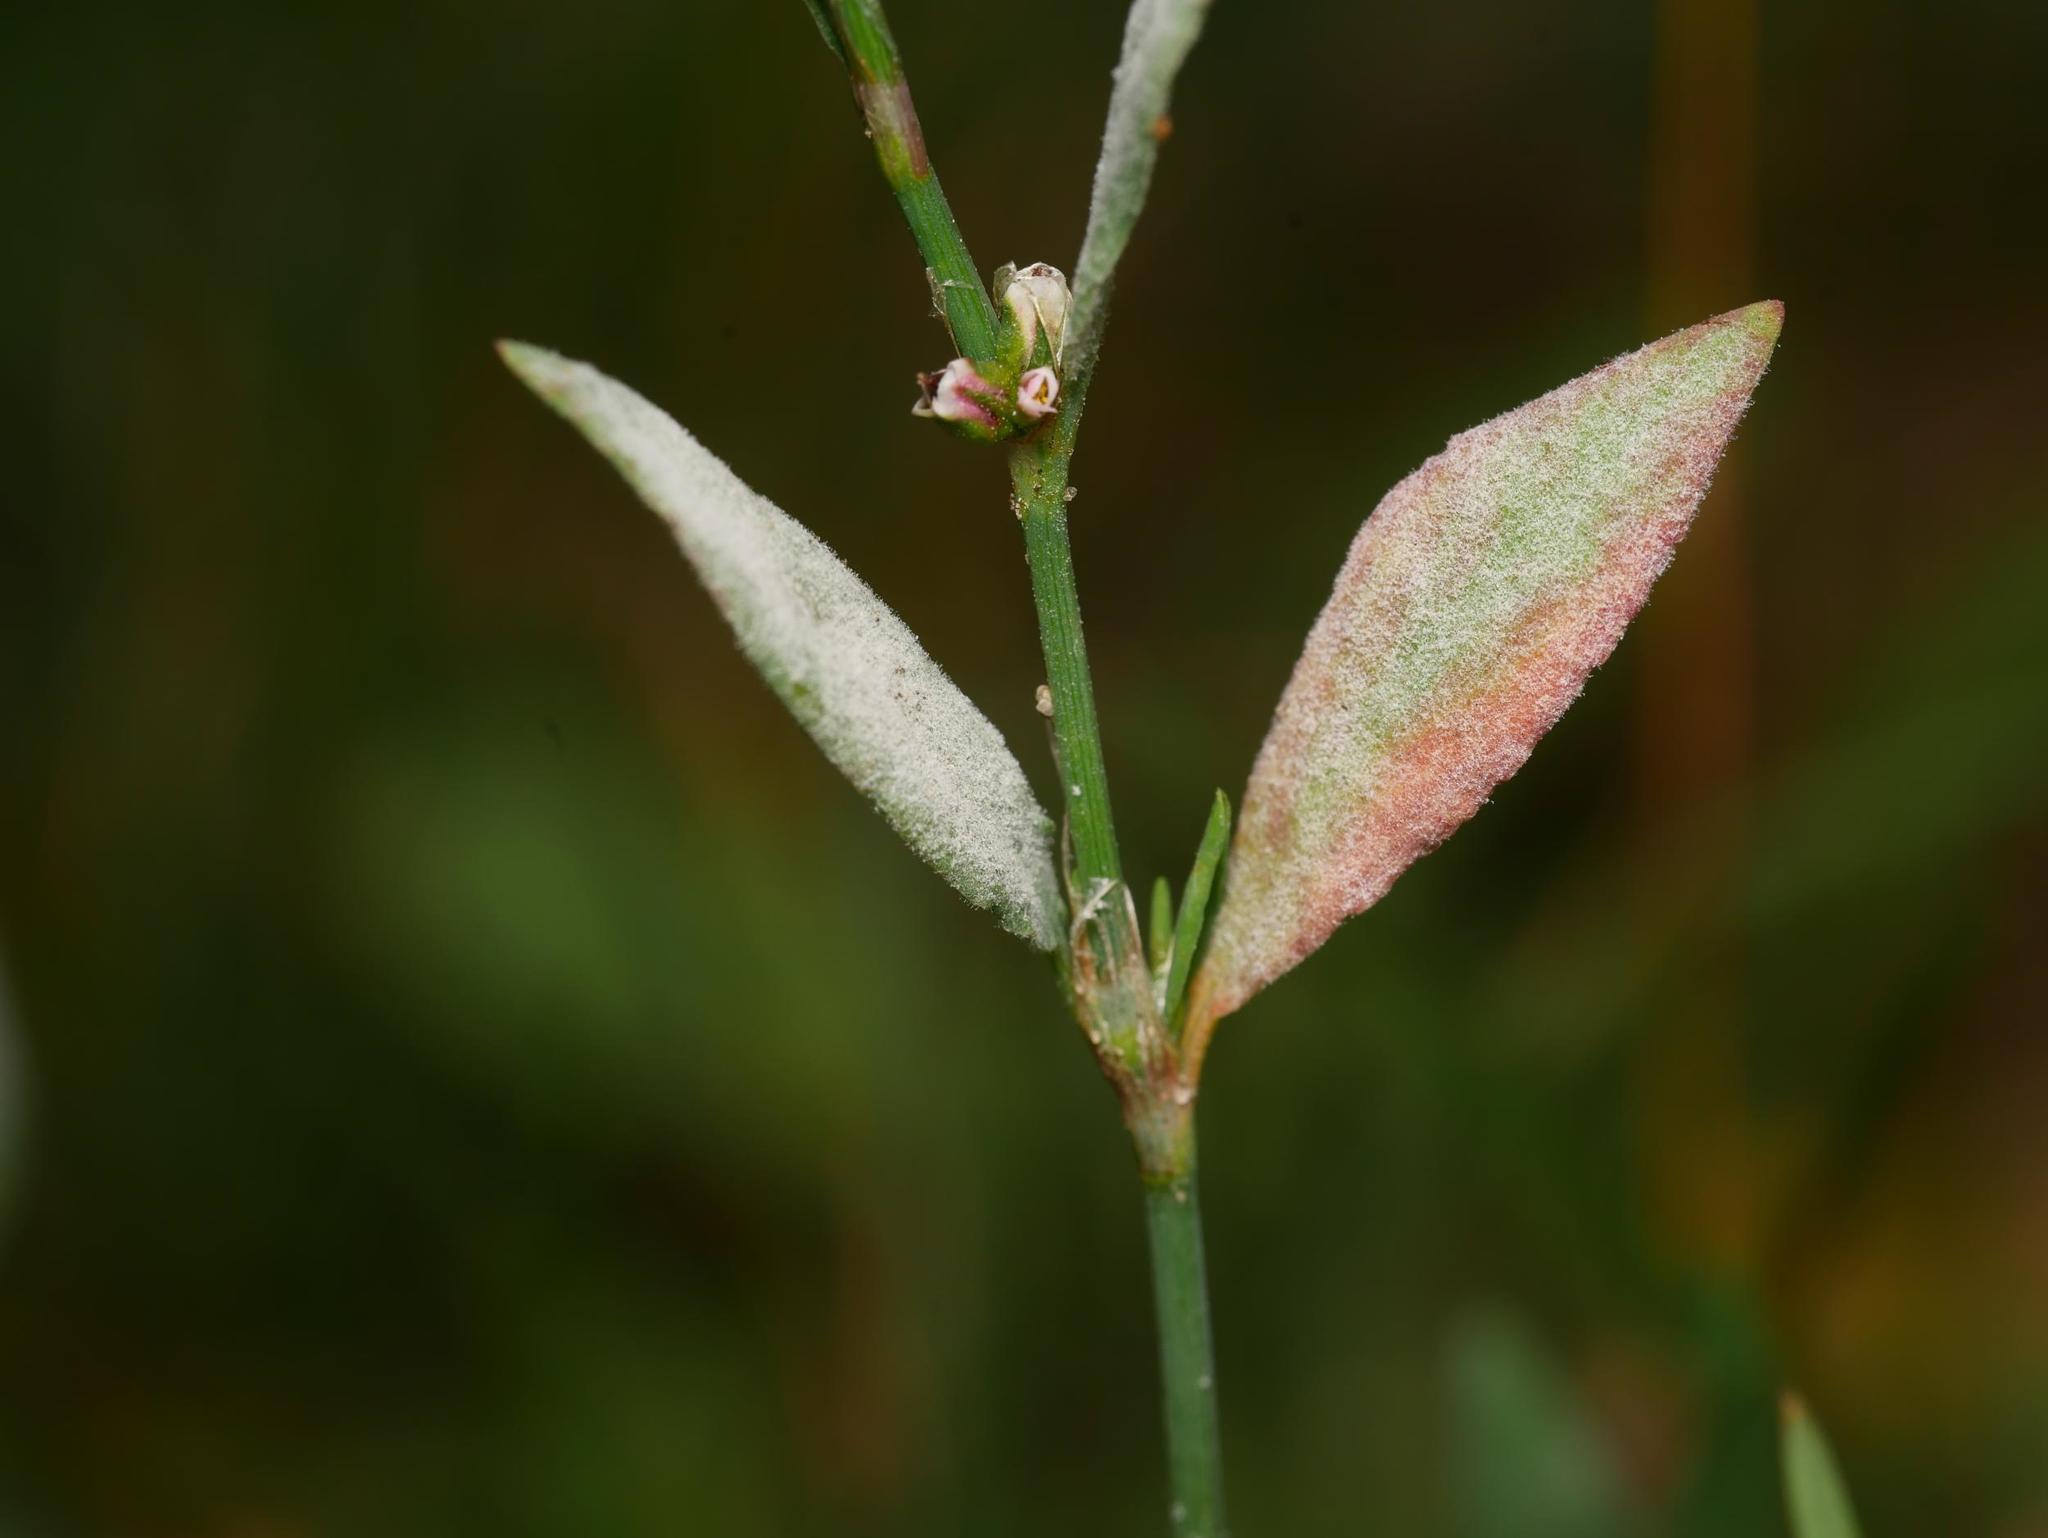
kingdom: Fungi
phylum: Ascomycota
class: Leotiomycetes
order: Helotiales
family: Erysiphaceae
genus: Erysiphe
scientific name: Erysiphe polygoni
